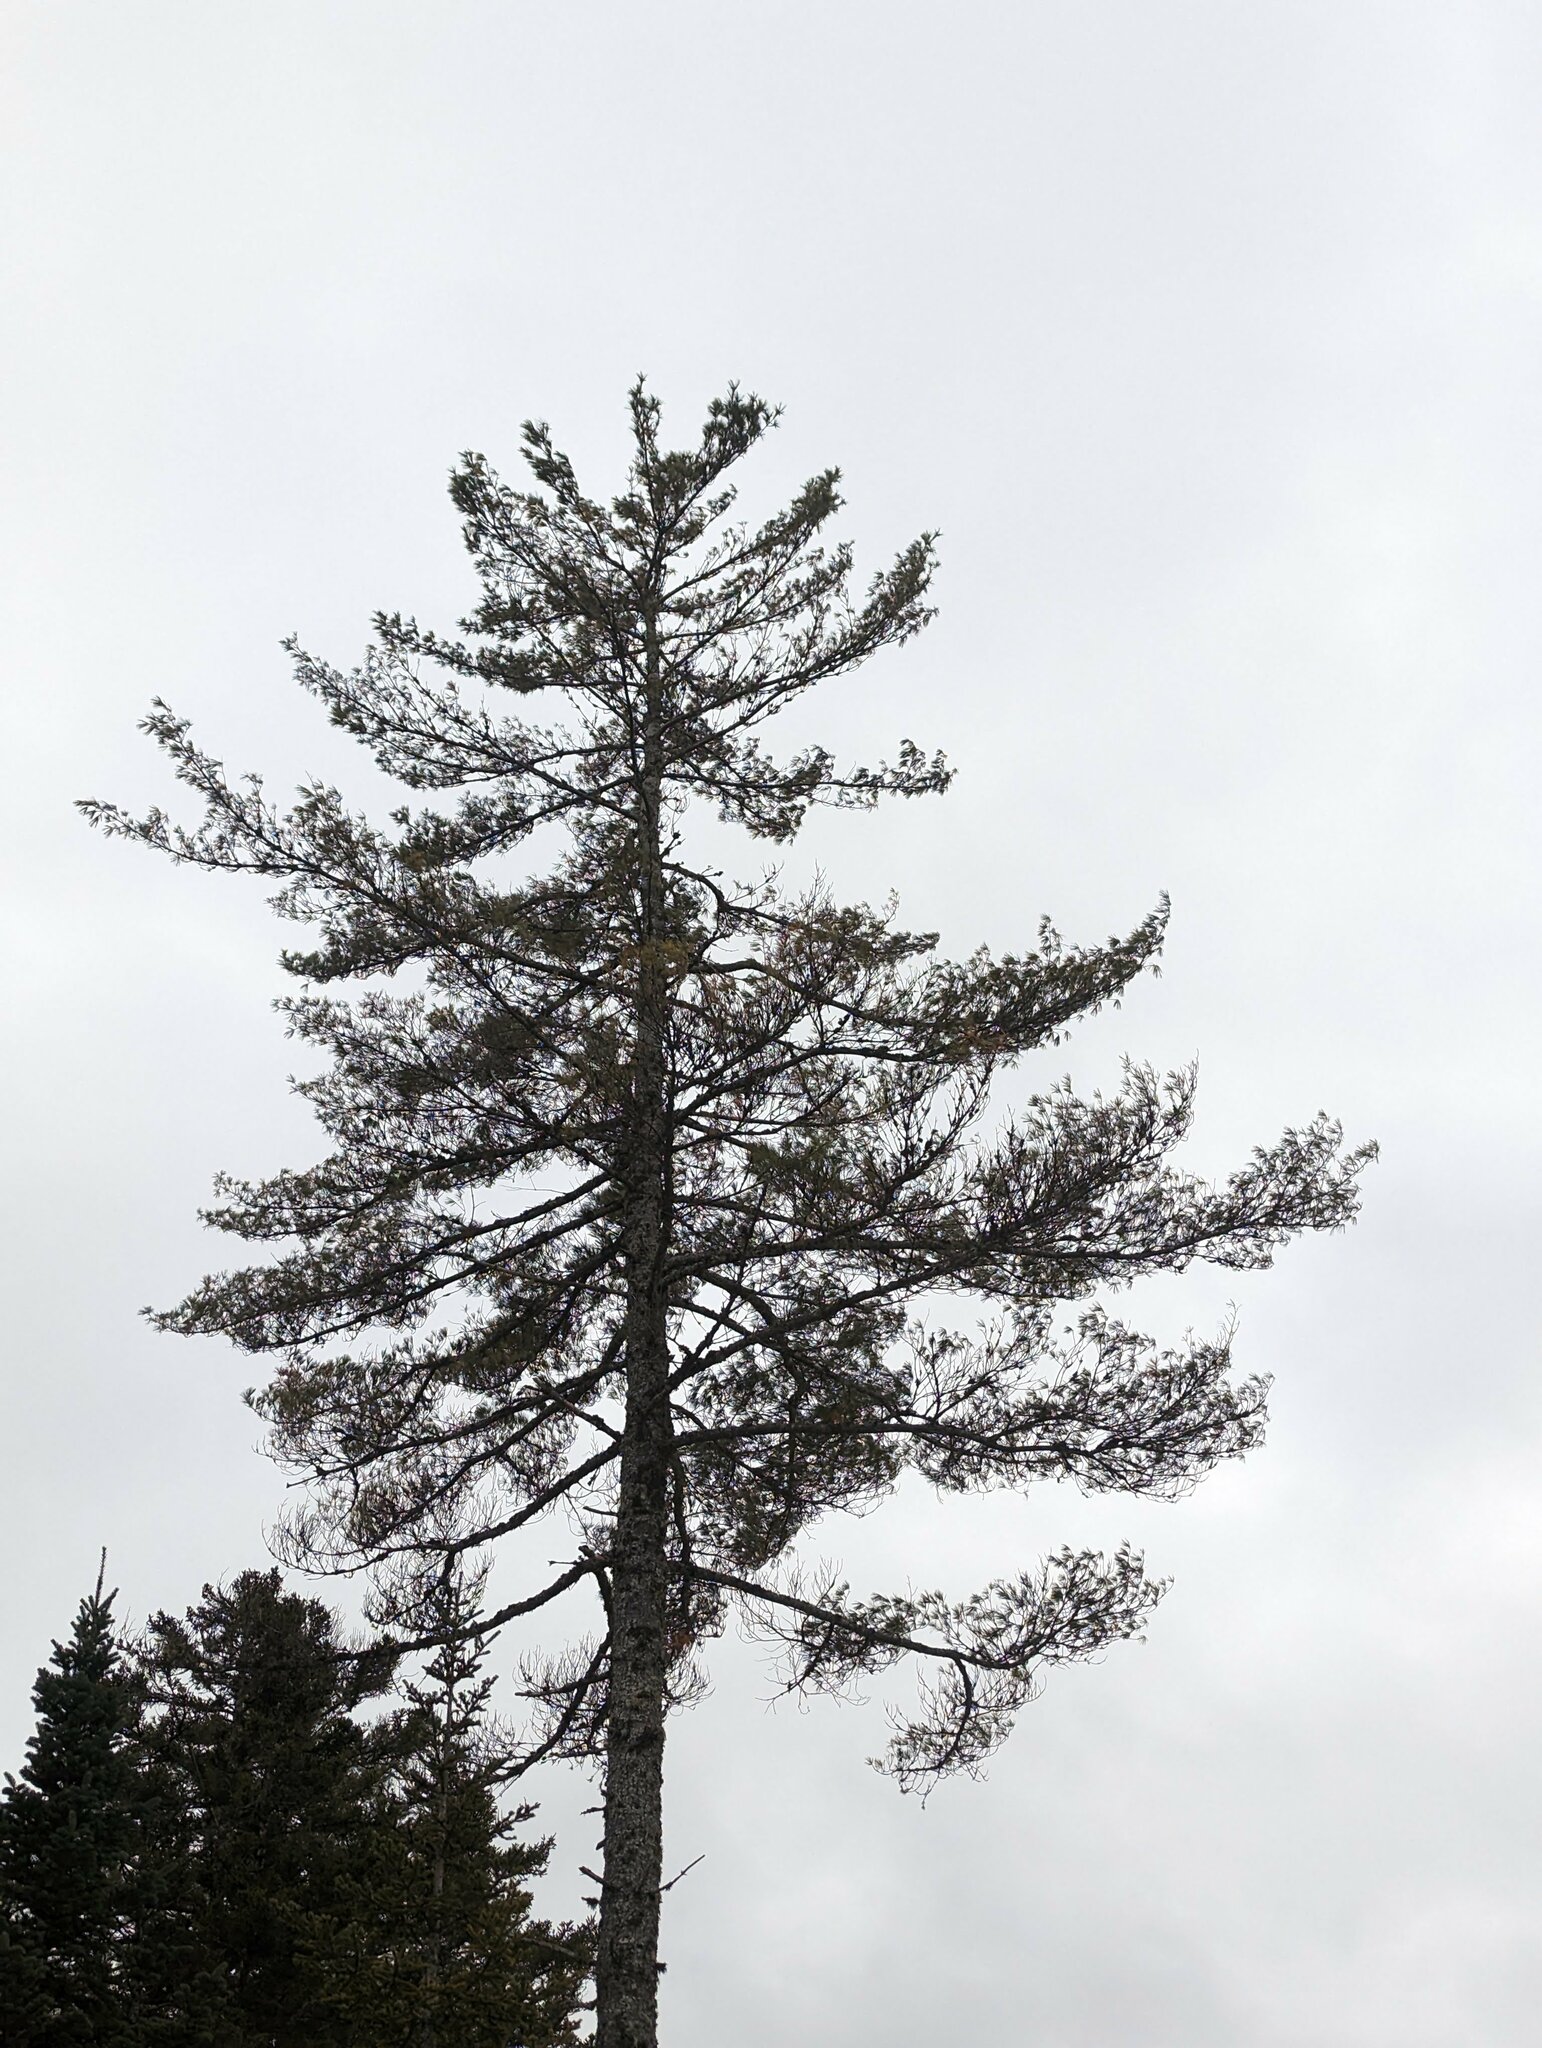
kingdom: Plantae
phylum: Tracheophyta
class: Pinopsida
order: Pinales
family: Pinaceae
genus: Pinus
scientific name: Pinus strobus
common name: Weymouth pine
